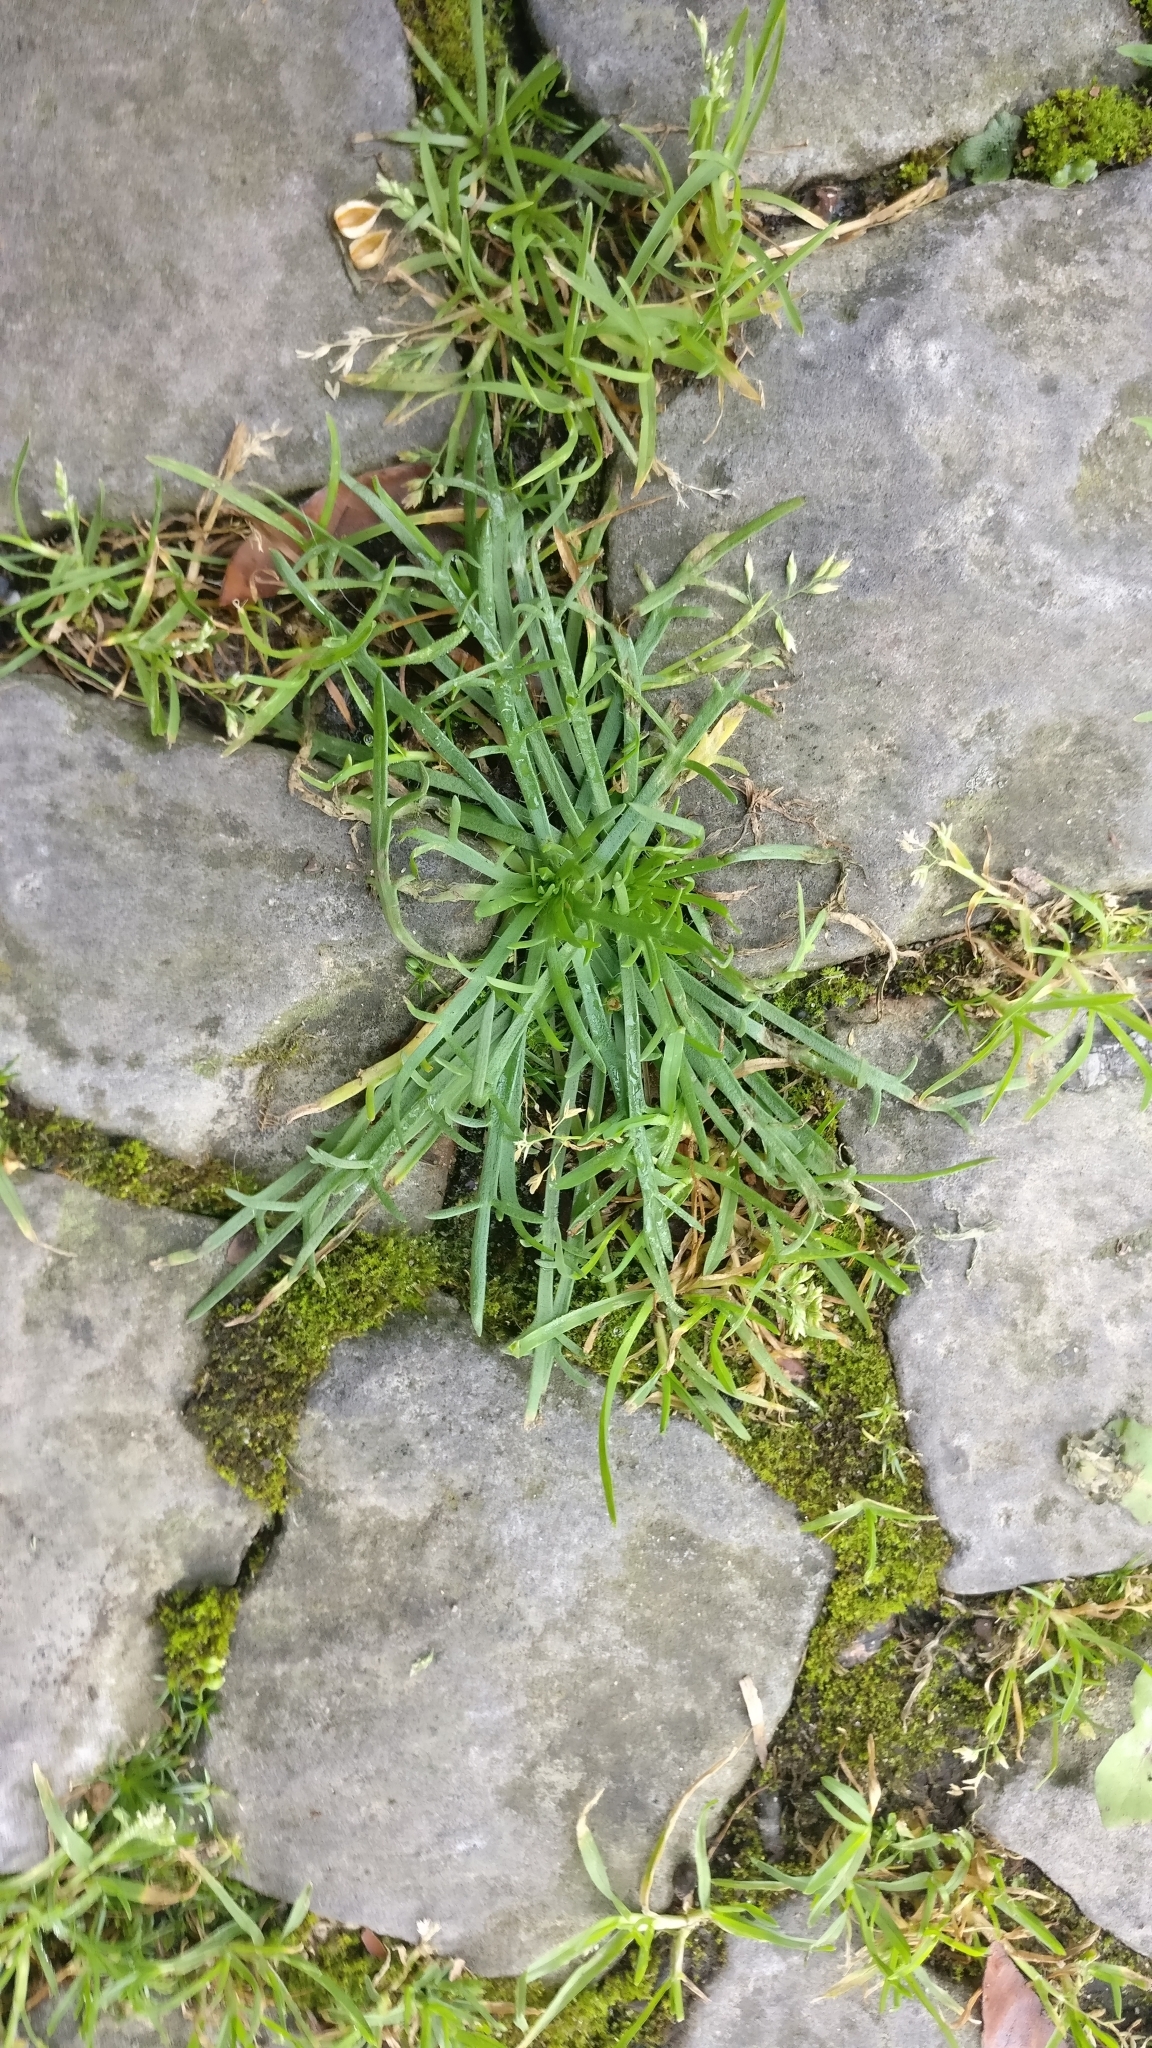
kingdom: Plantae
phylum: Tracheophyta
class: Magnoliopsida
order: Lamiales
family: Plantaginaceae
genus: Plantago
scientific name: Plantago coronopus
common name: Buck's-horn plantain
